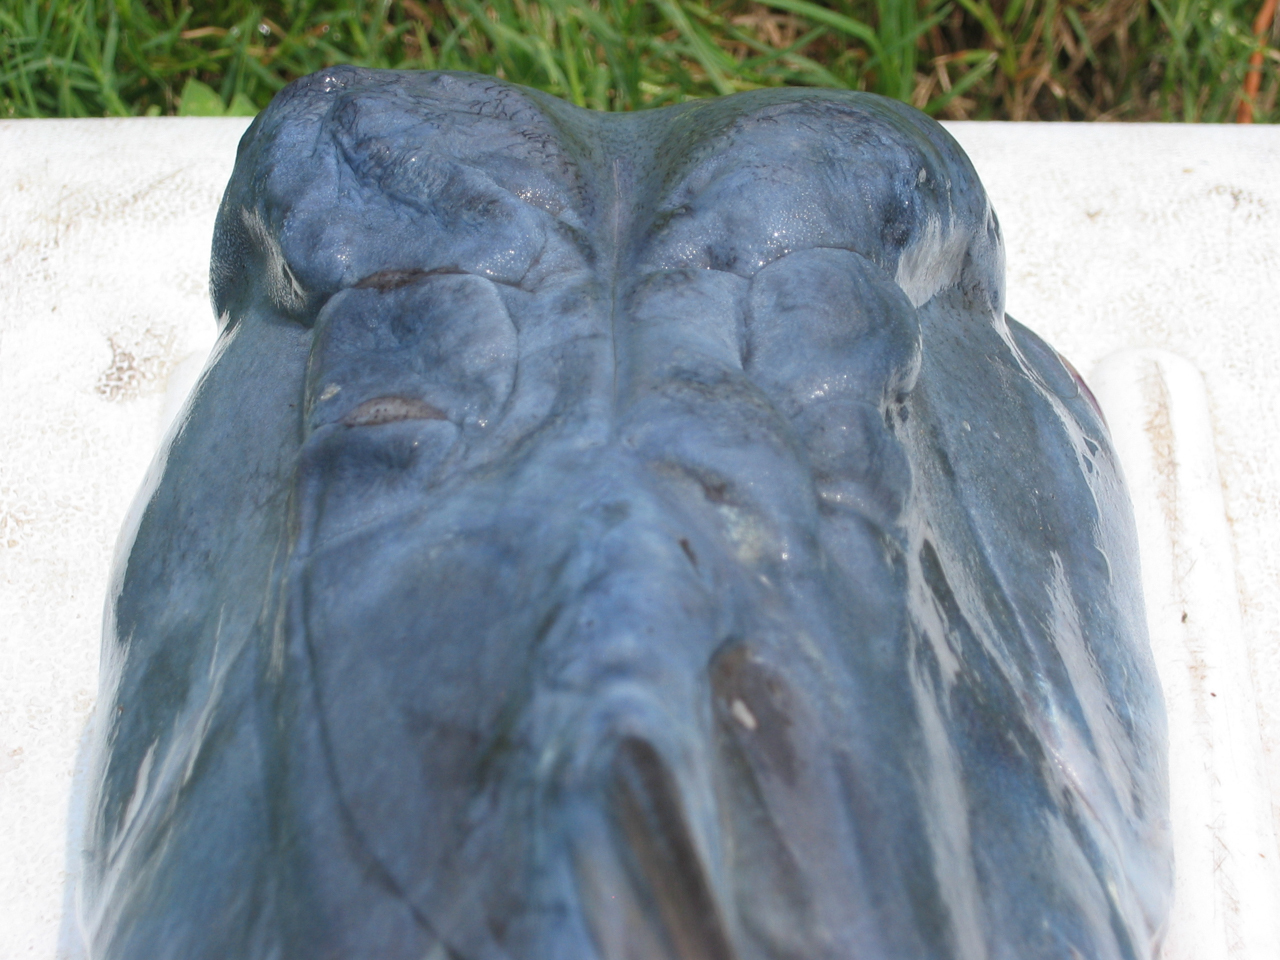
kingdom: Animalia
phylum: Chordata
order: Siluriformes
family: Ariidae
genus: Bagre
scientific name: Bagre marinus
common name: Gafftopsail sea catfish
